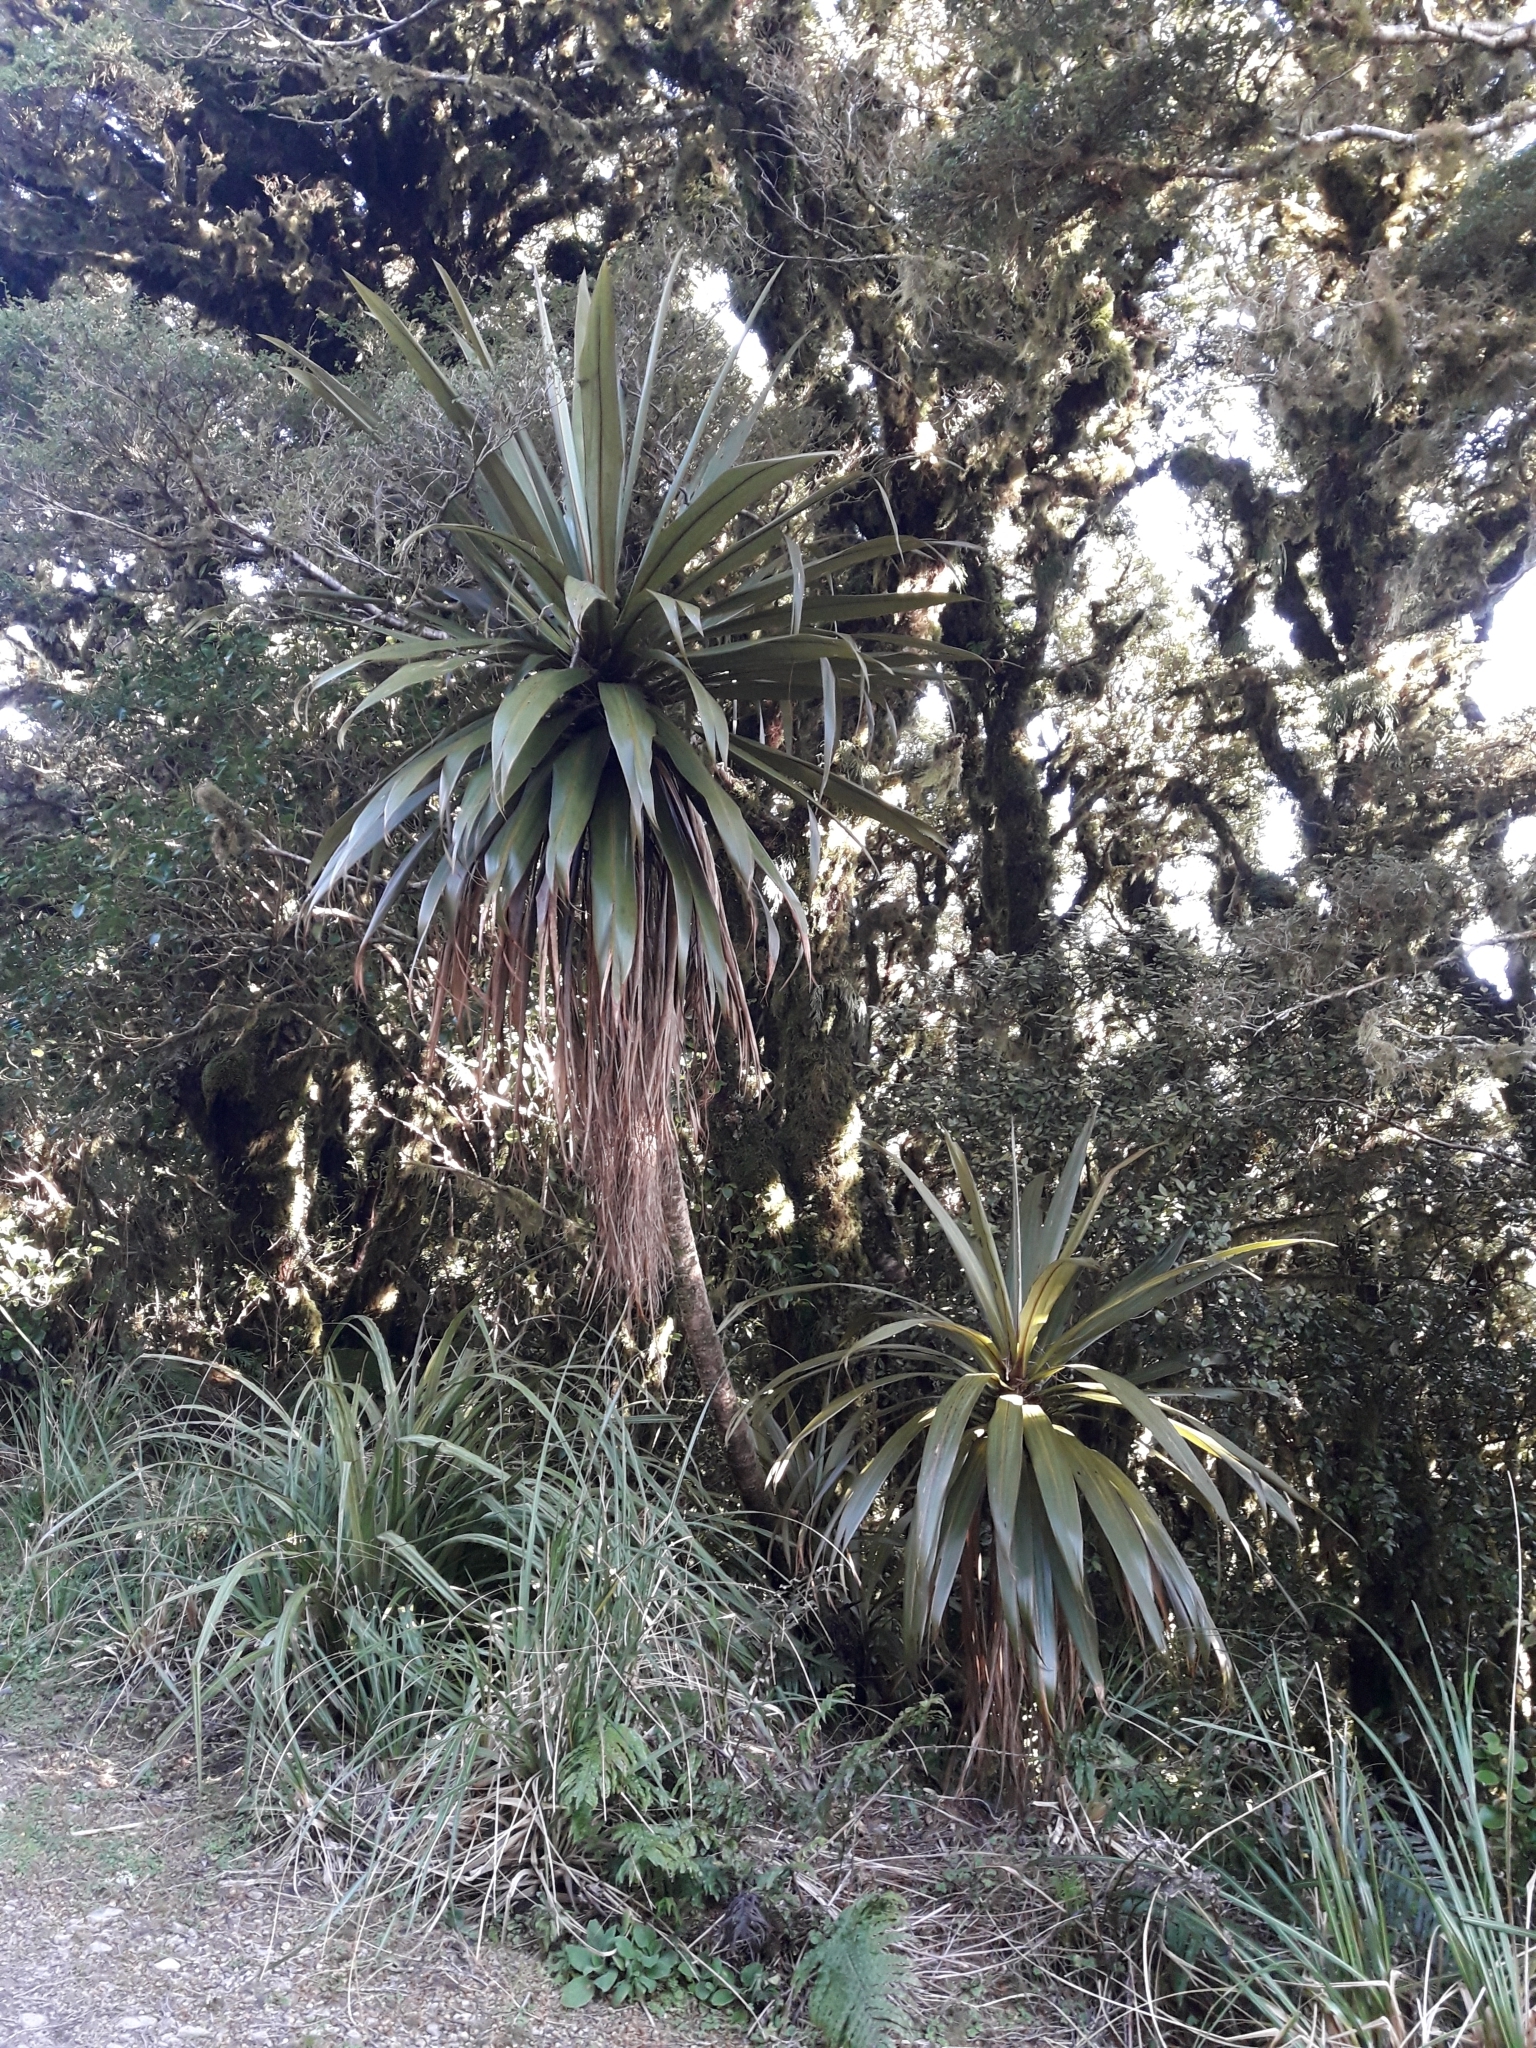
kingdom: Plantae
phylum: Tracheophyta
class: Liliopsida
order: Asparagales
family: Asparagaceae
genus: Cordyline
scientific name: Cordyline indivisa
